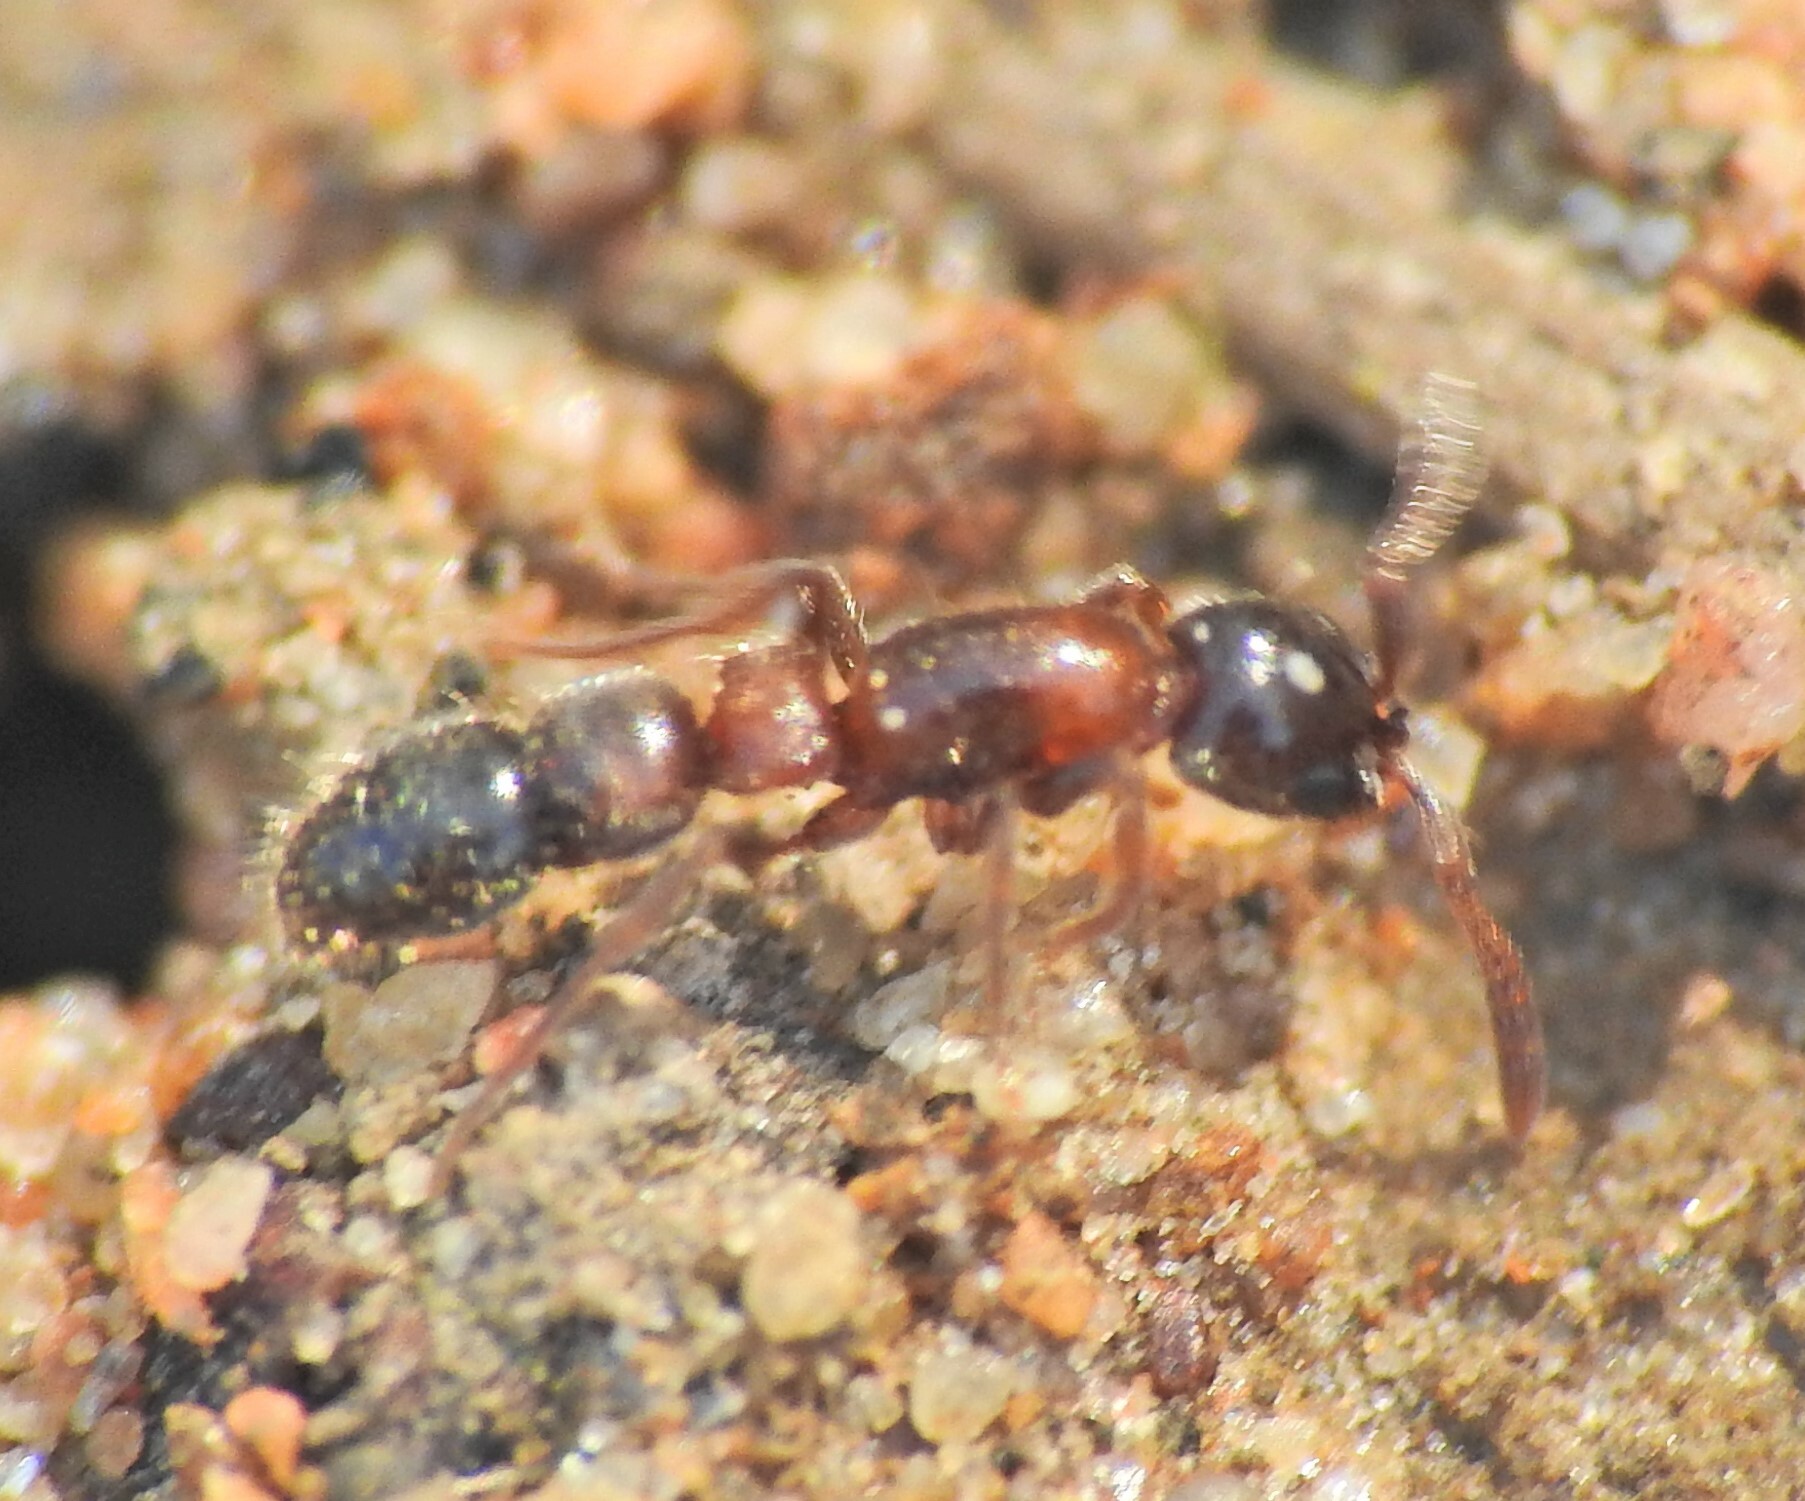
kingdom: Animalia
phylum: Arthropoda
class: Insecta
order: Hymenoptera
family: Formicidae
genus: Lioponera
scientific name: Lioponera
